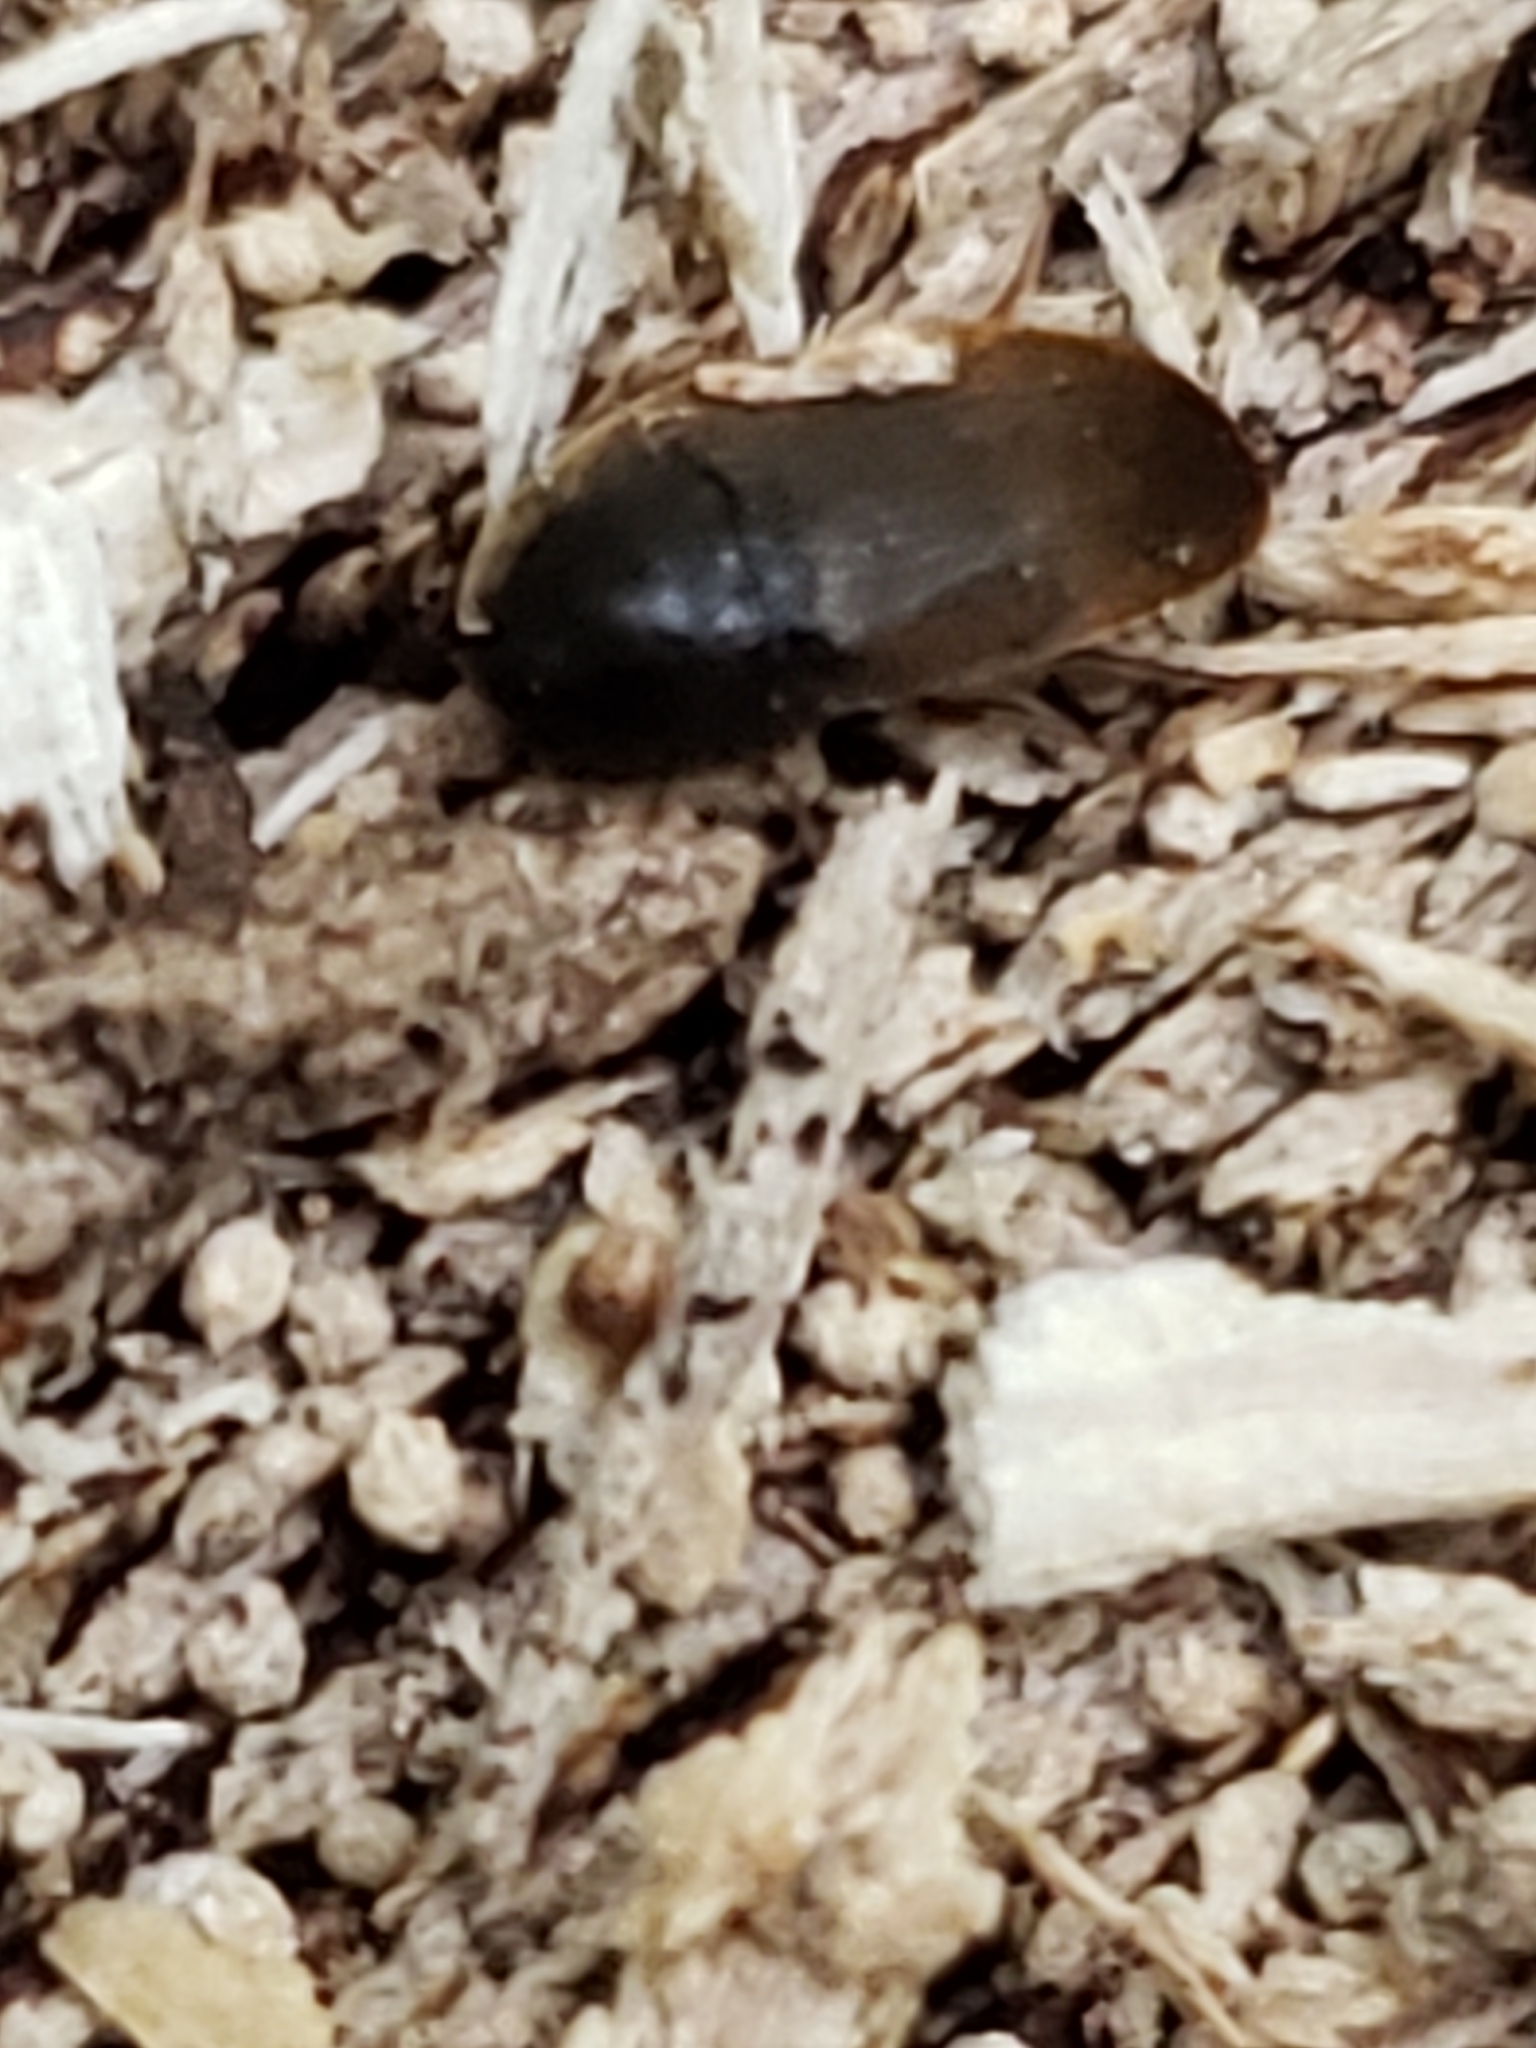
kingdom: Animalia
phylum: Arthropoda
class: Insecta
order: Coleoptera
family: Tetratomidae
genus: Eustrophus
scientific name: Eustrophus tomentosus
